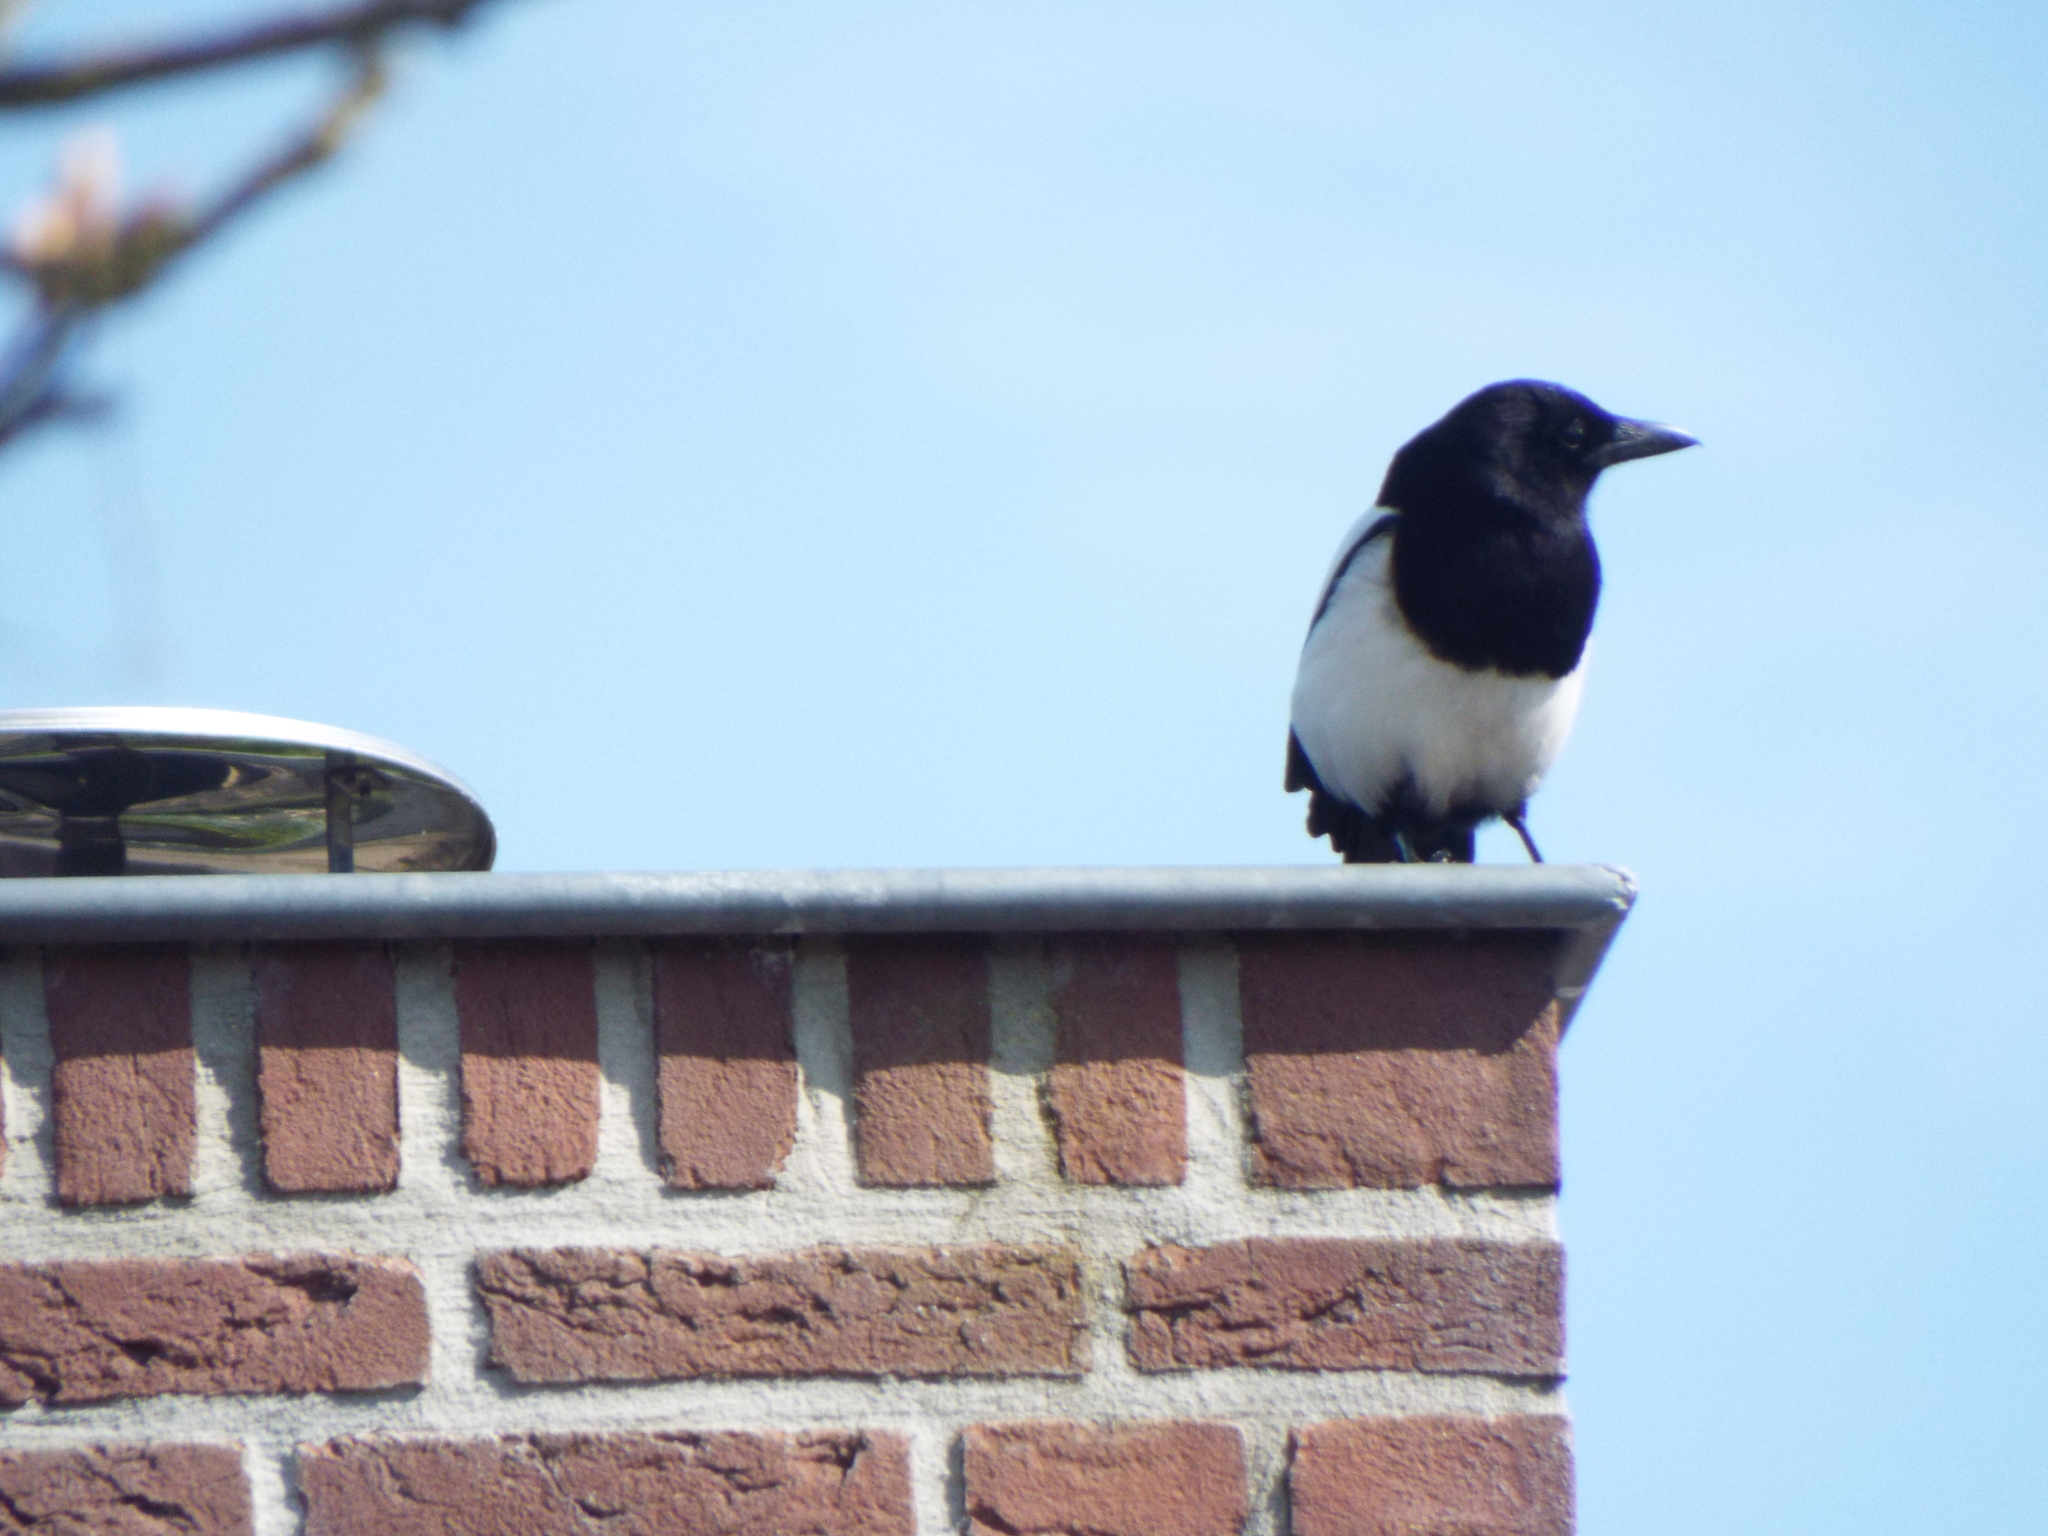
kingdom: Animalia
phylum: Chordata
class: Aves
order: Passeriformes
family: Corvidae
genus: Pica
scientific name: Pica pica
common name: Eurasian magpie
